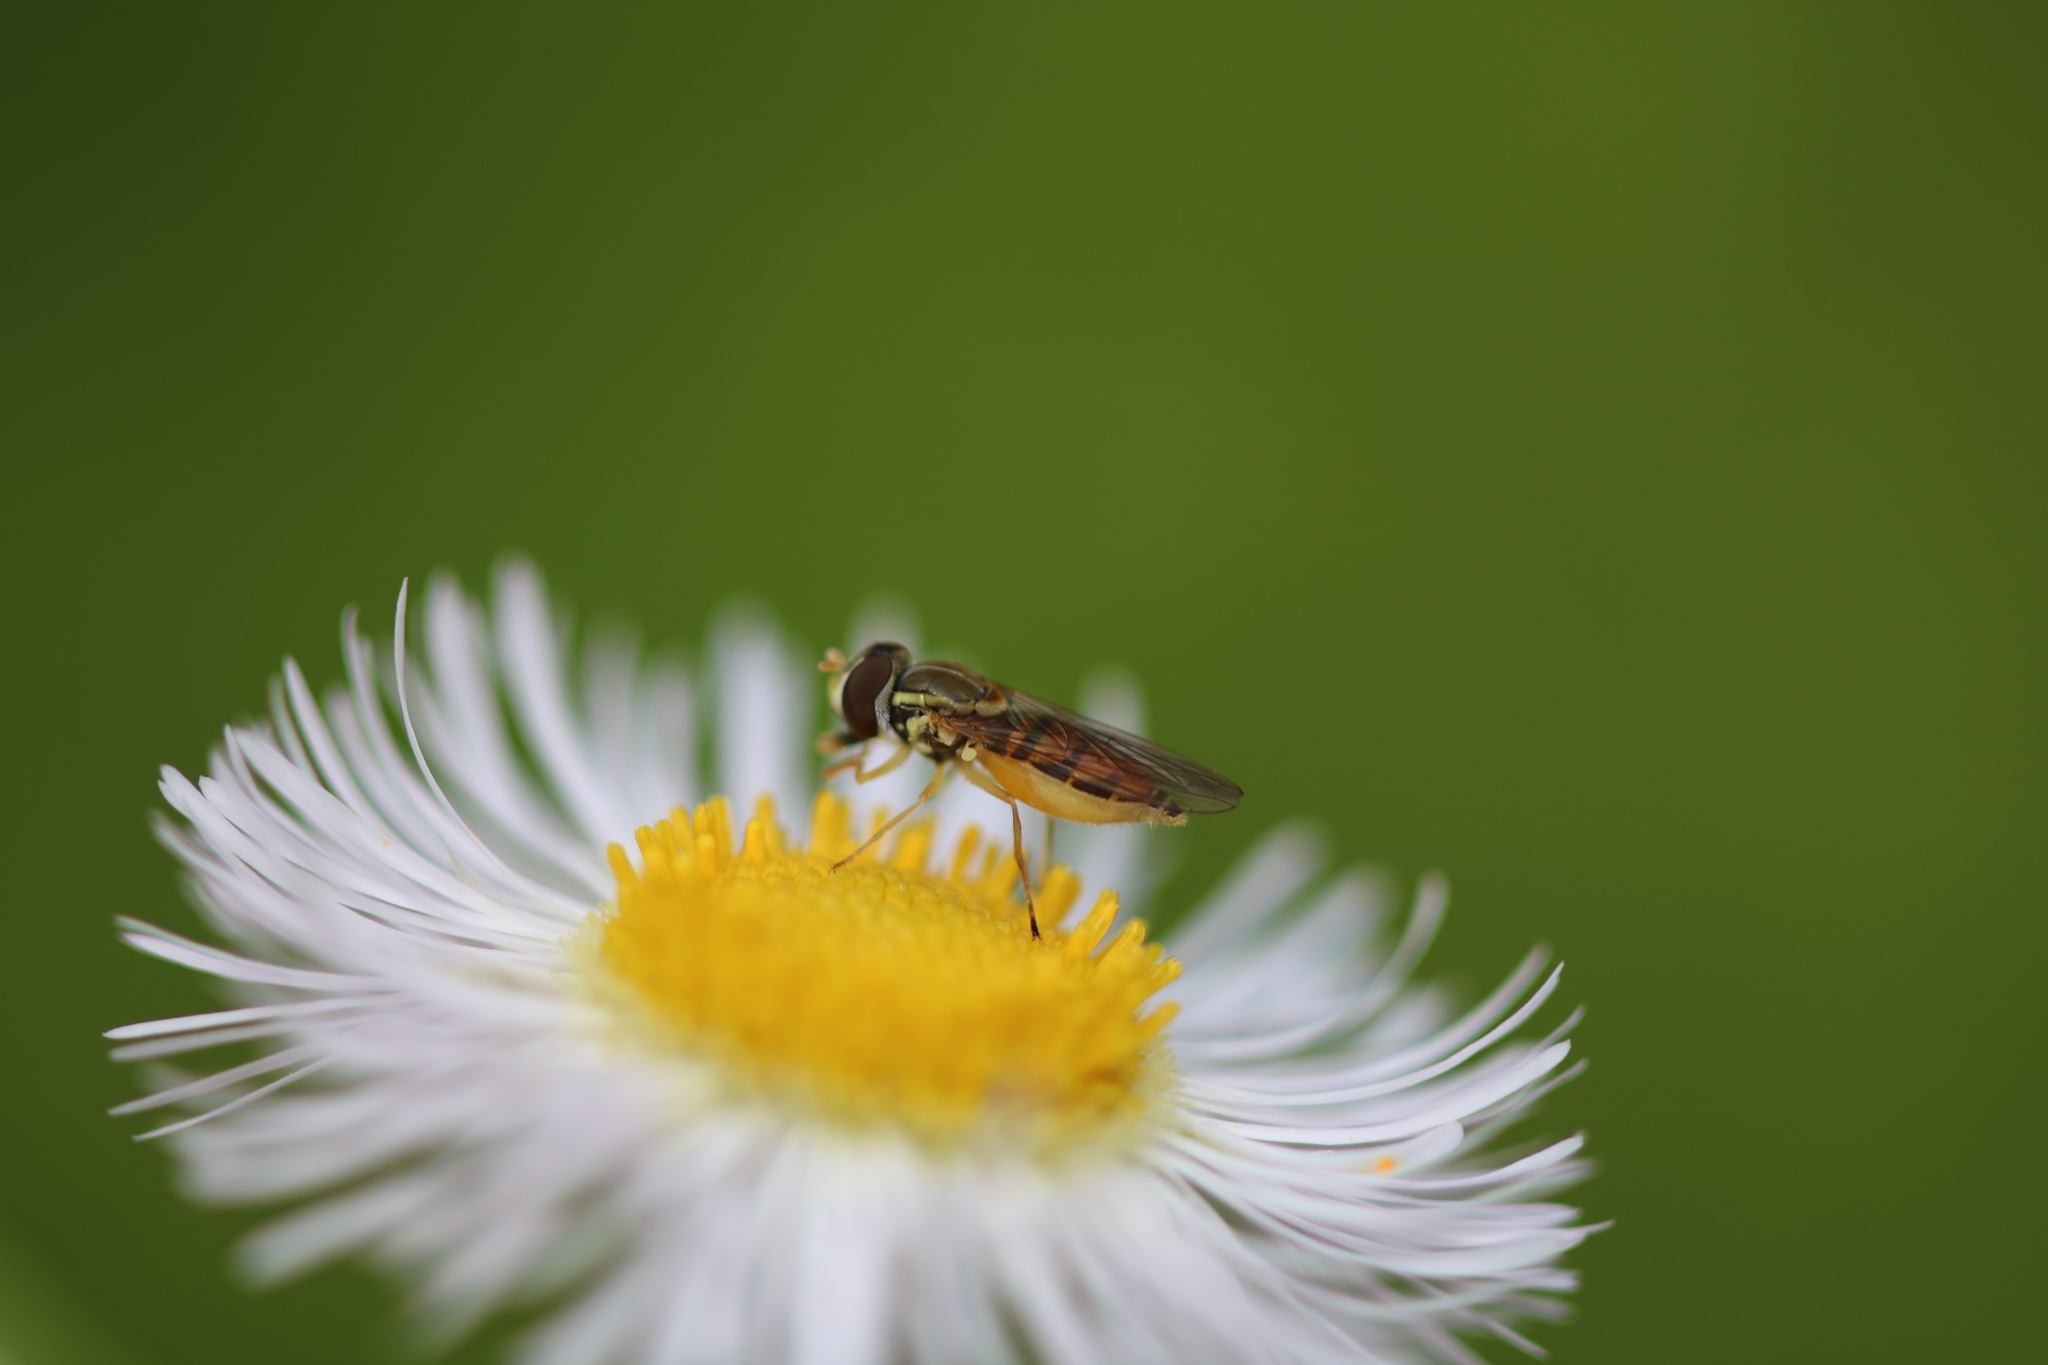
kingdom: Animalia
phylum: Arthropoda
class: Insecta
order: Diptera
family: Syrphidae
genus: Toxomerus
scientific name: Toxomerus marginatus
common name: Syrphid fly
